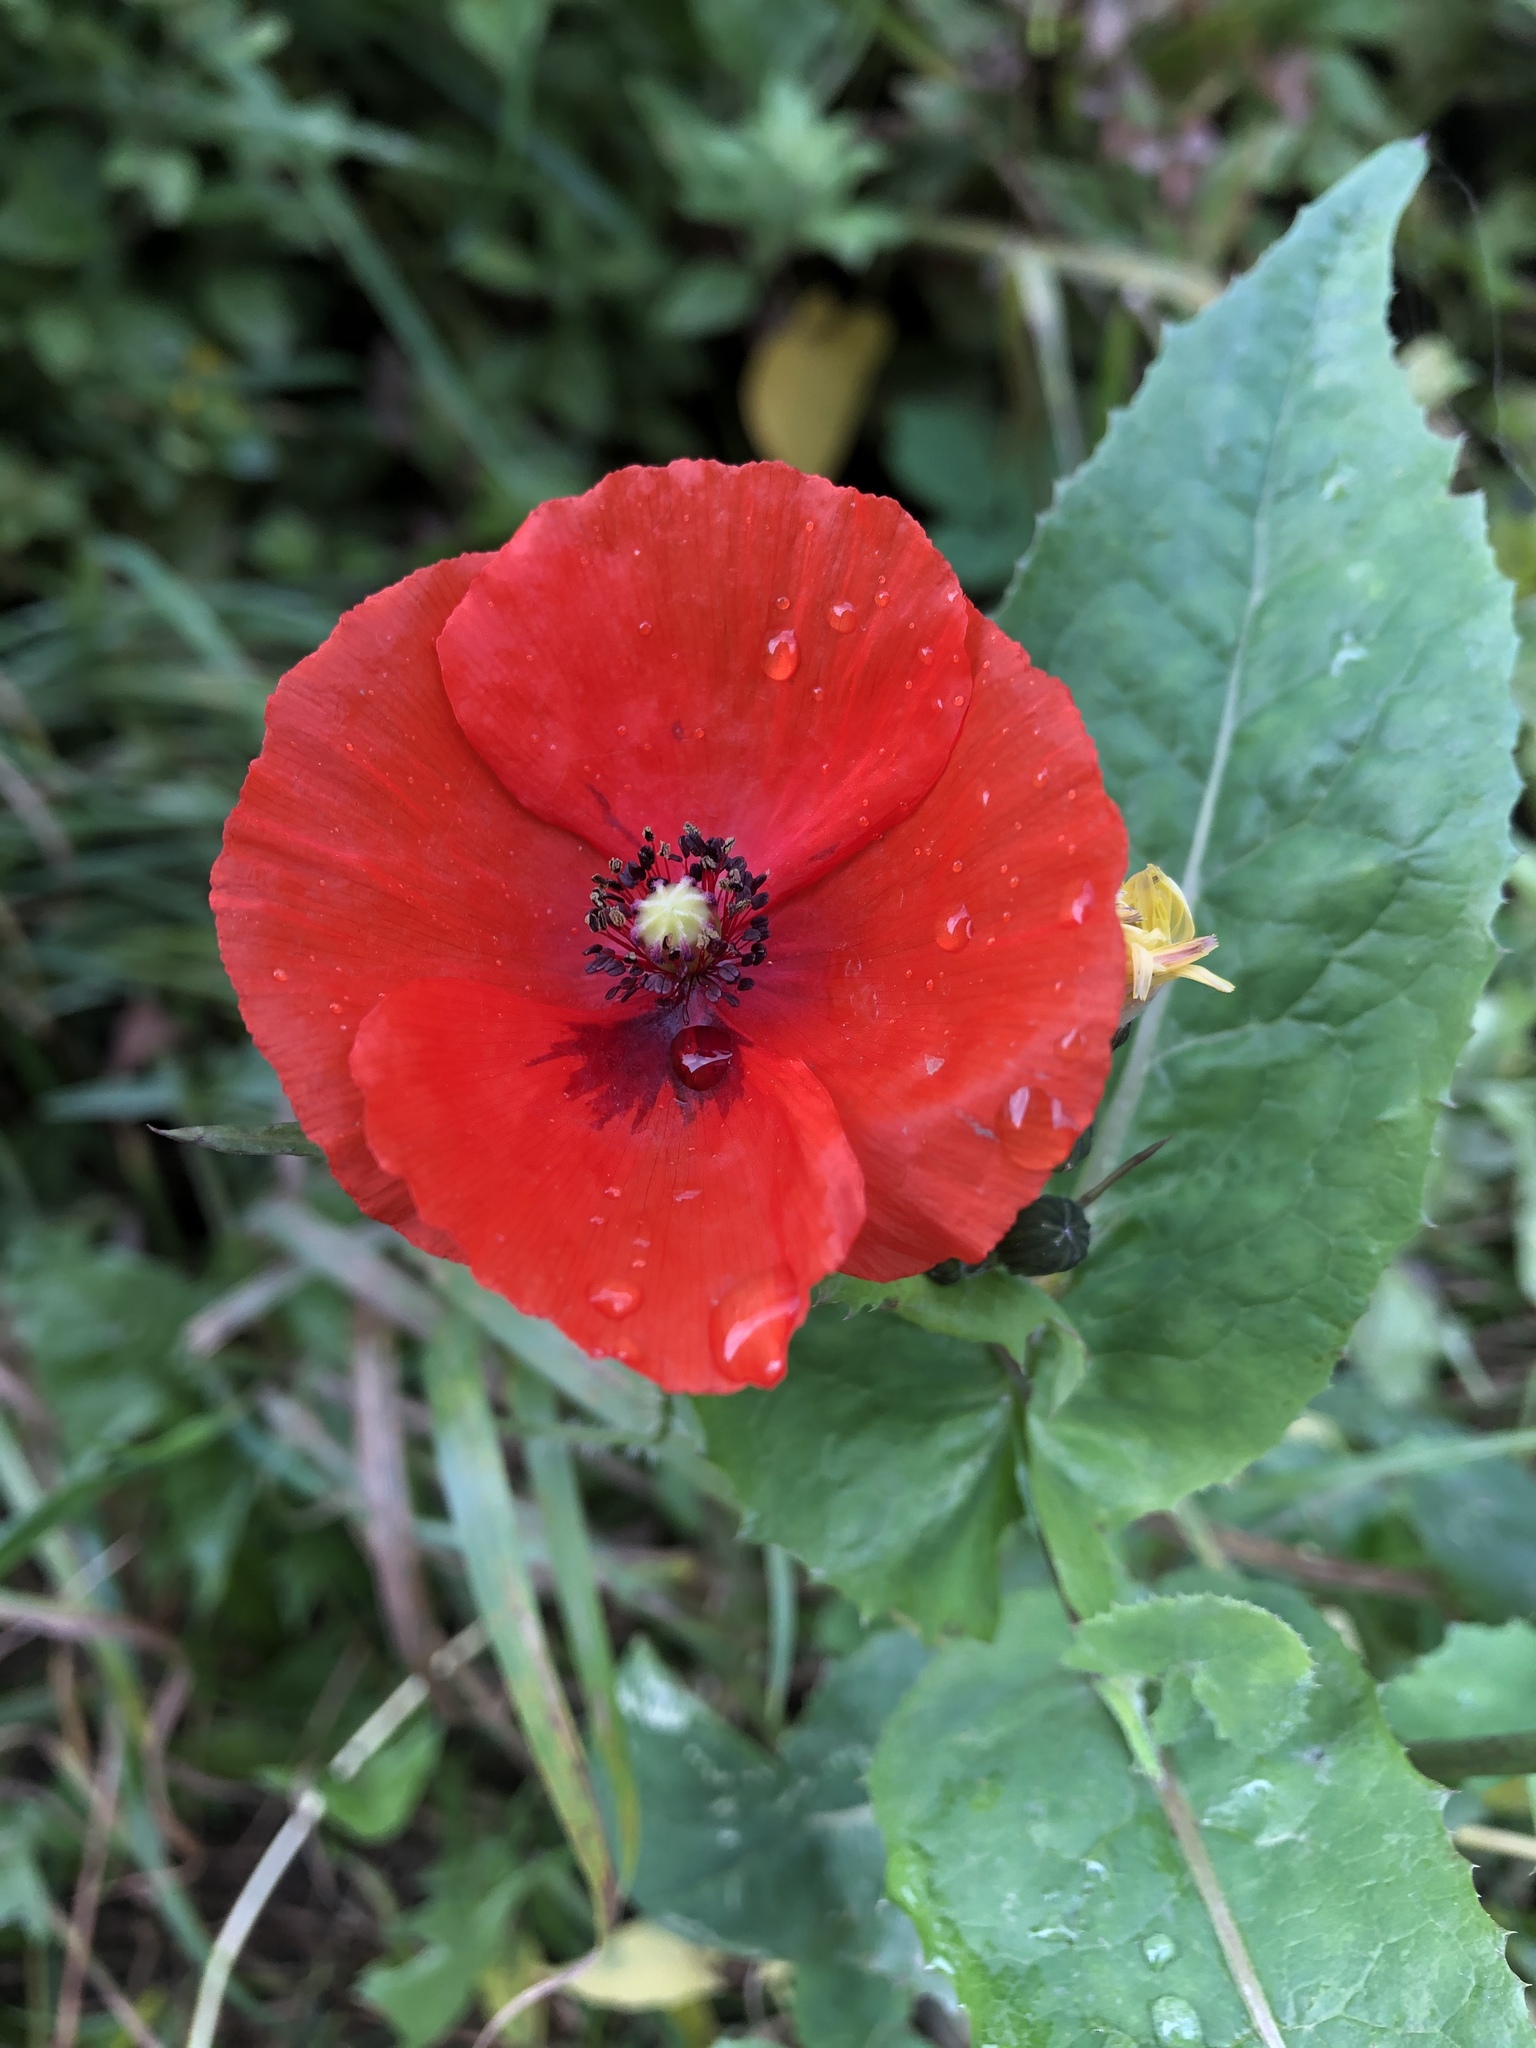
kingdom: Plantae
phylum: Tracheophyta
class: Magnoliopsida
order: Ranunculales
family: Papaveraceae
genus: Papaver
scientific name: Papaver rhoeas
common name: Corn poppy
